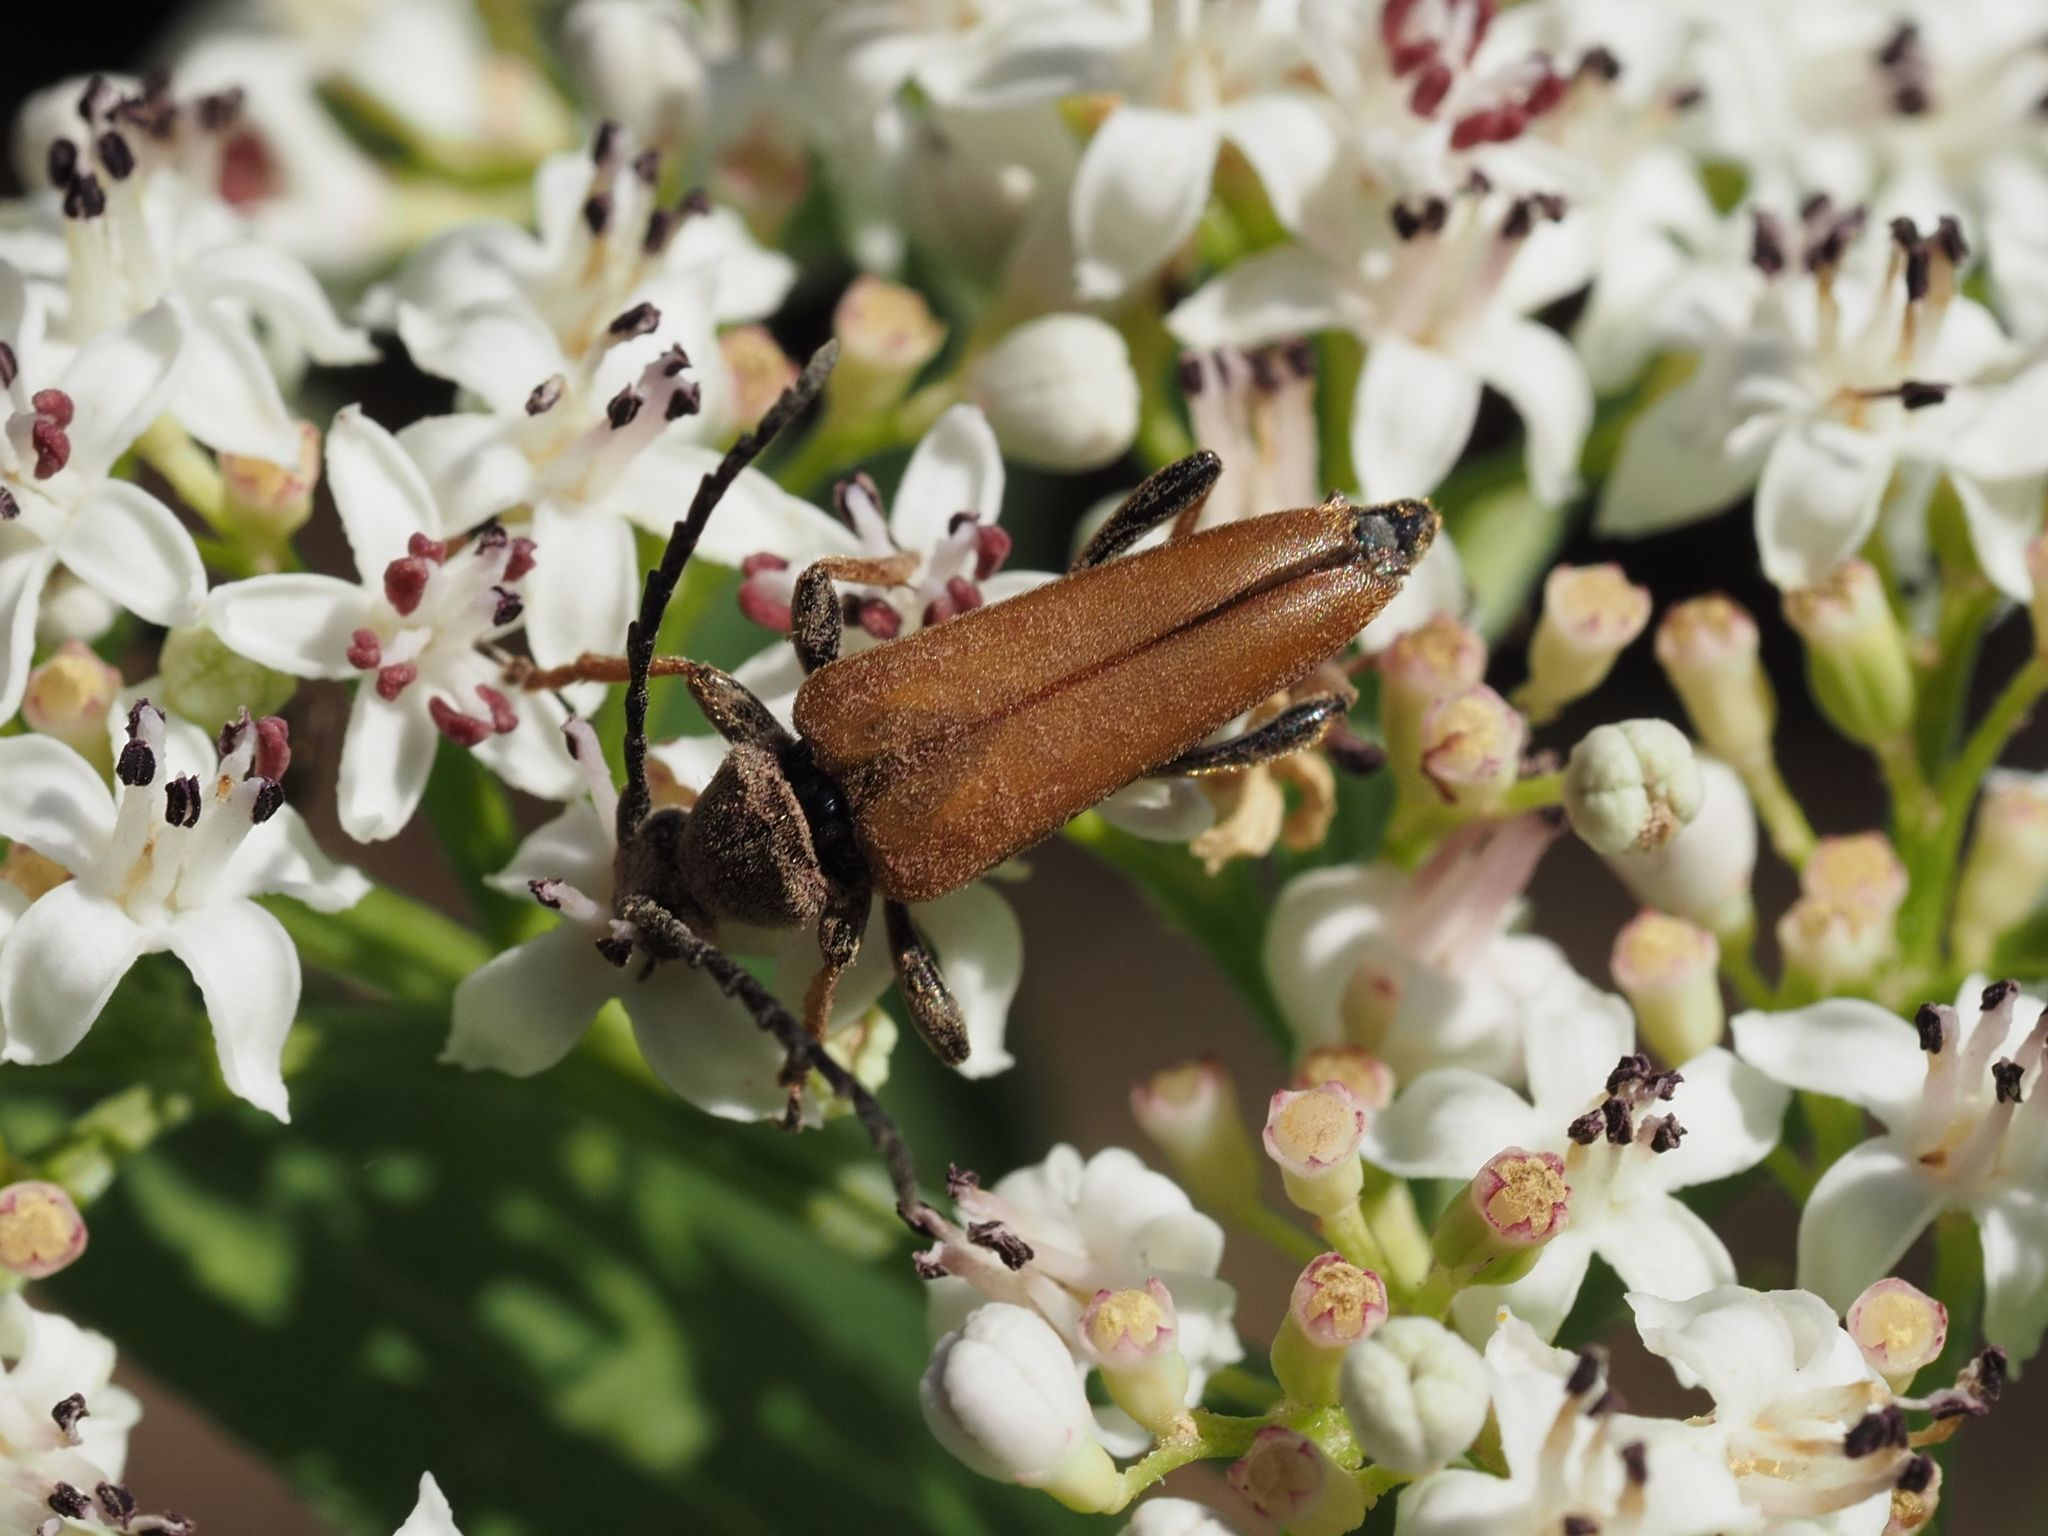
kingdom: Animalia
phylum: Arthropoda
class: Insecta
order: Coleoptera
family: Cerambycidae
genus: Stictoleptura
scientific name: Stictoleptura rubra
